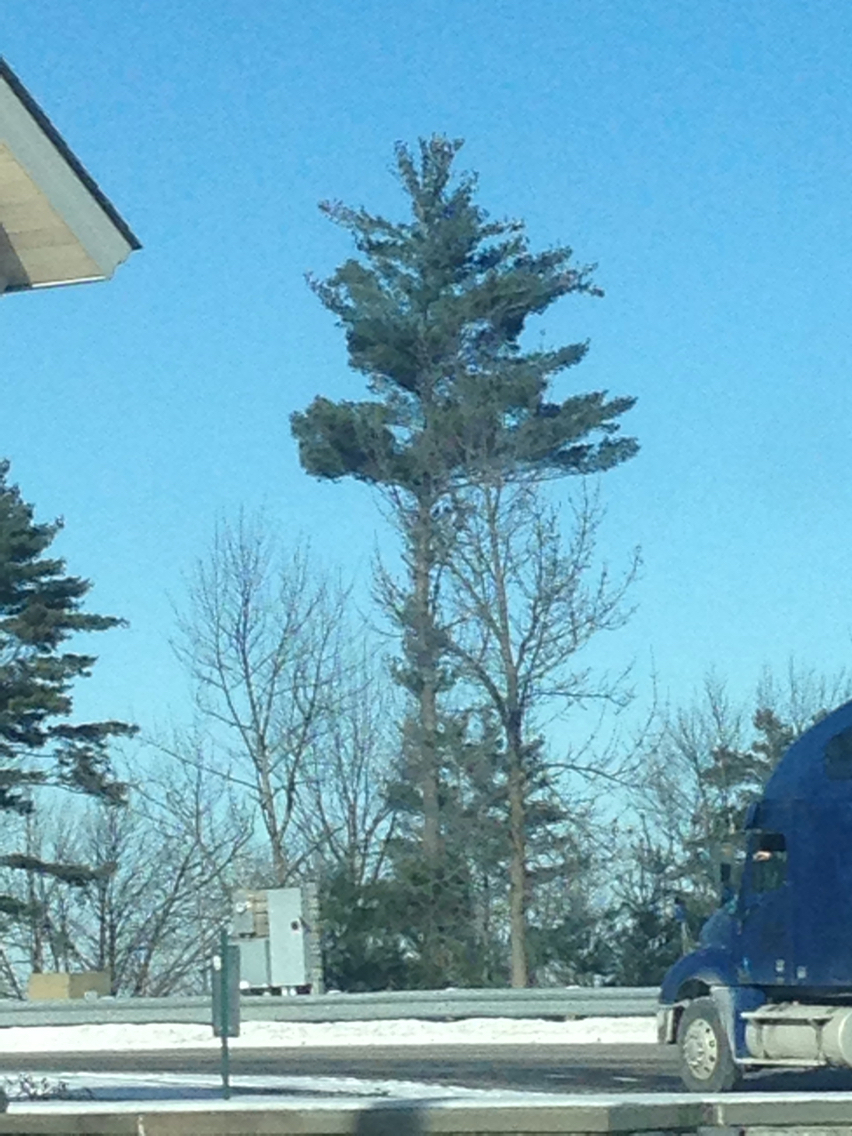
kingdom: Plantae
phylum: Tracheophyta
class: Pinopsida
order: Pinales
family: Pinaceae
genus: Pinus
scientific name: Pinus strobus
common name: Weymouth pine
